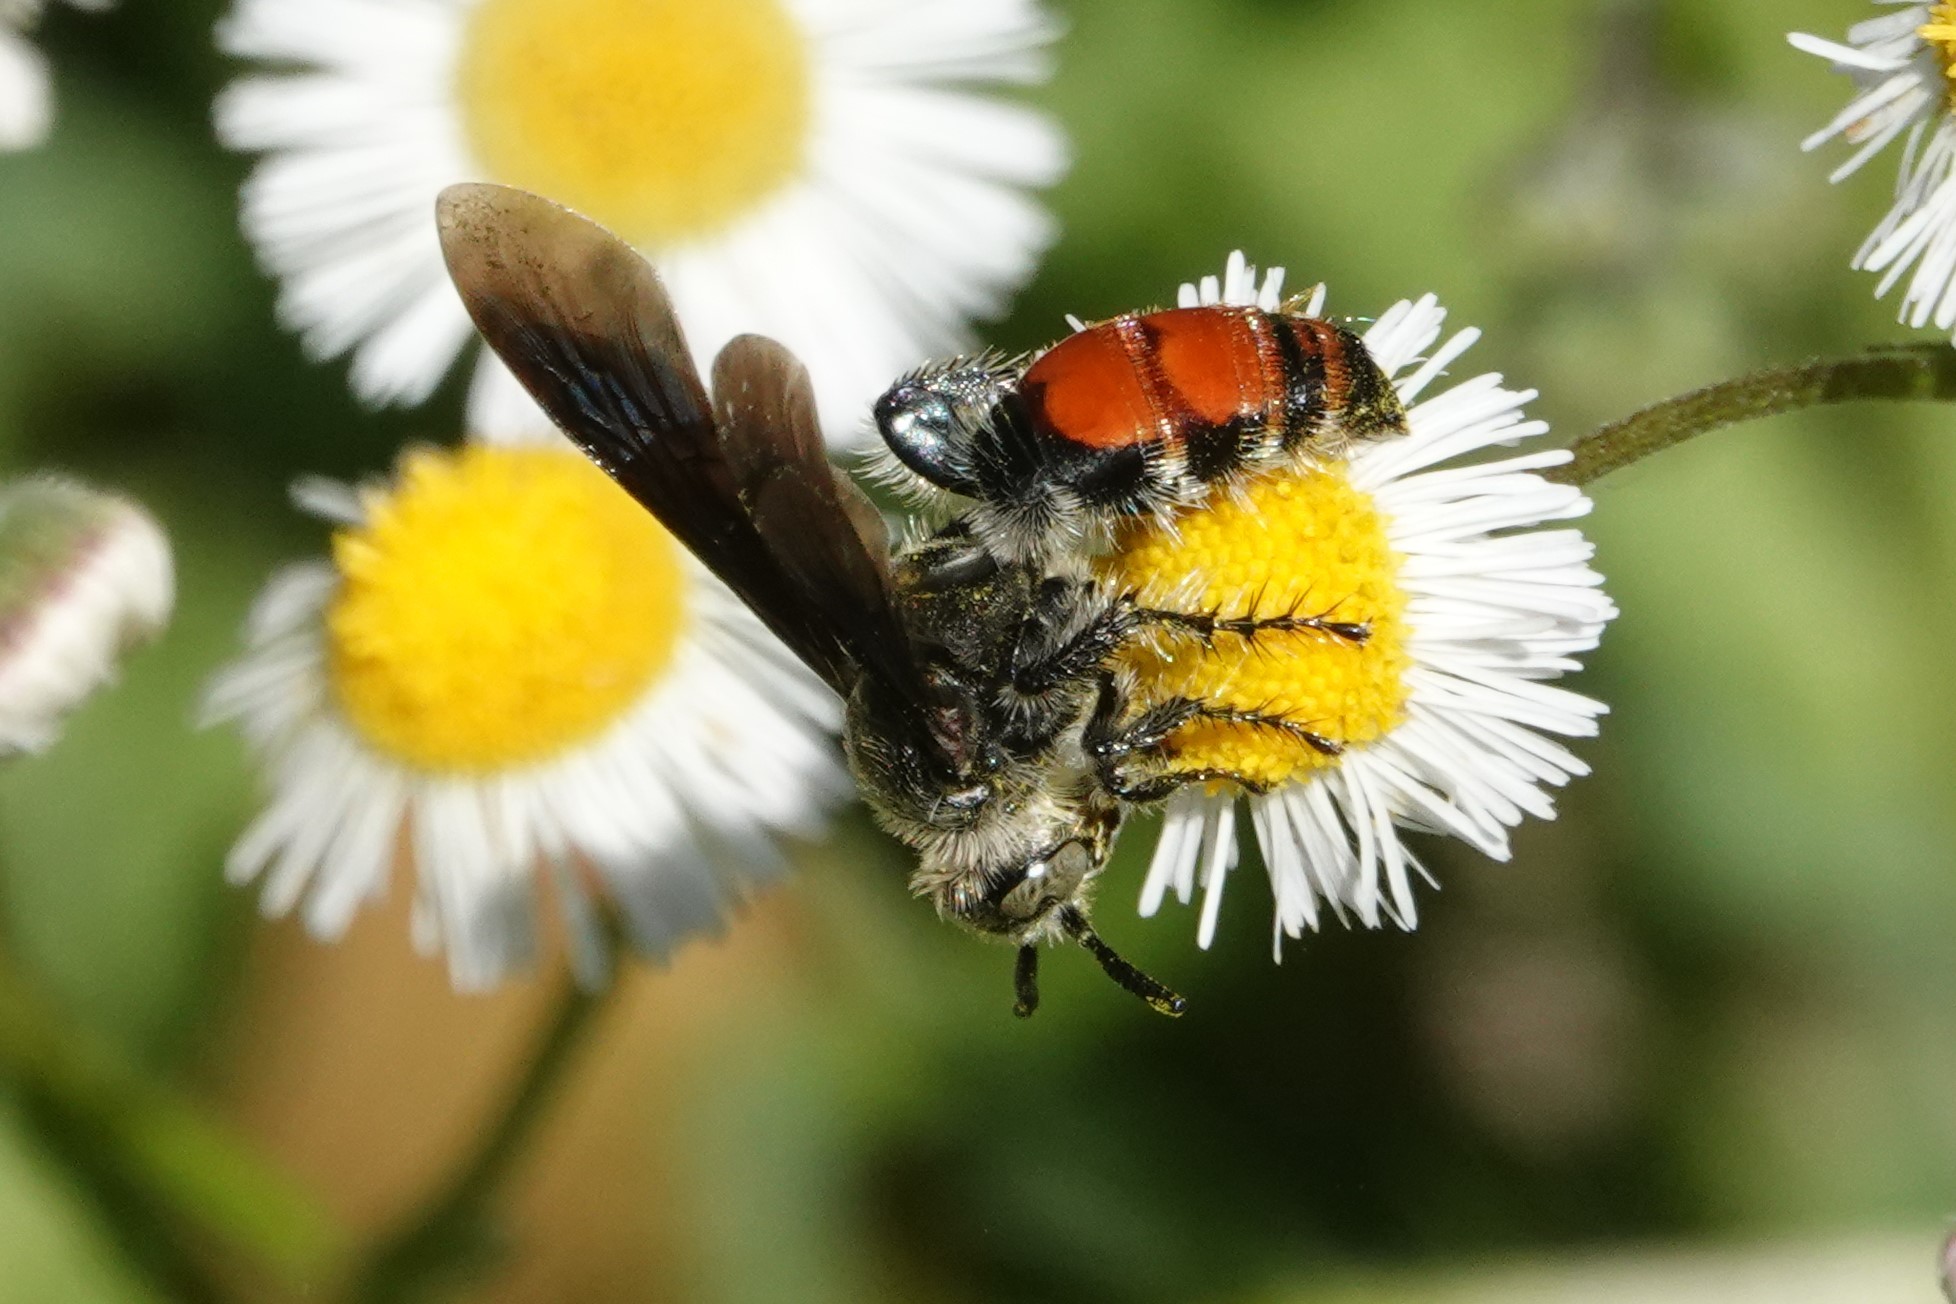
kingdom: Animalia
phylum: Arthropoda
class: Insecta
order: Hymenoptera
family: Scoliidae
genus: Dielis
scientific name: Dielis dorsata
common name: Scoliid wasp
